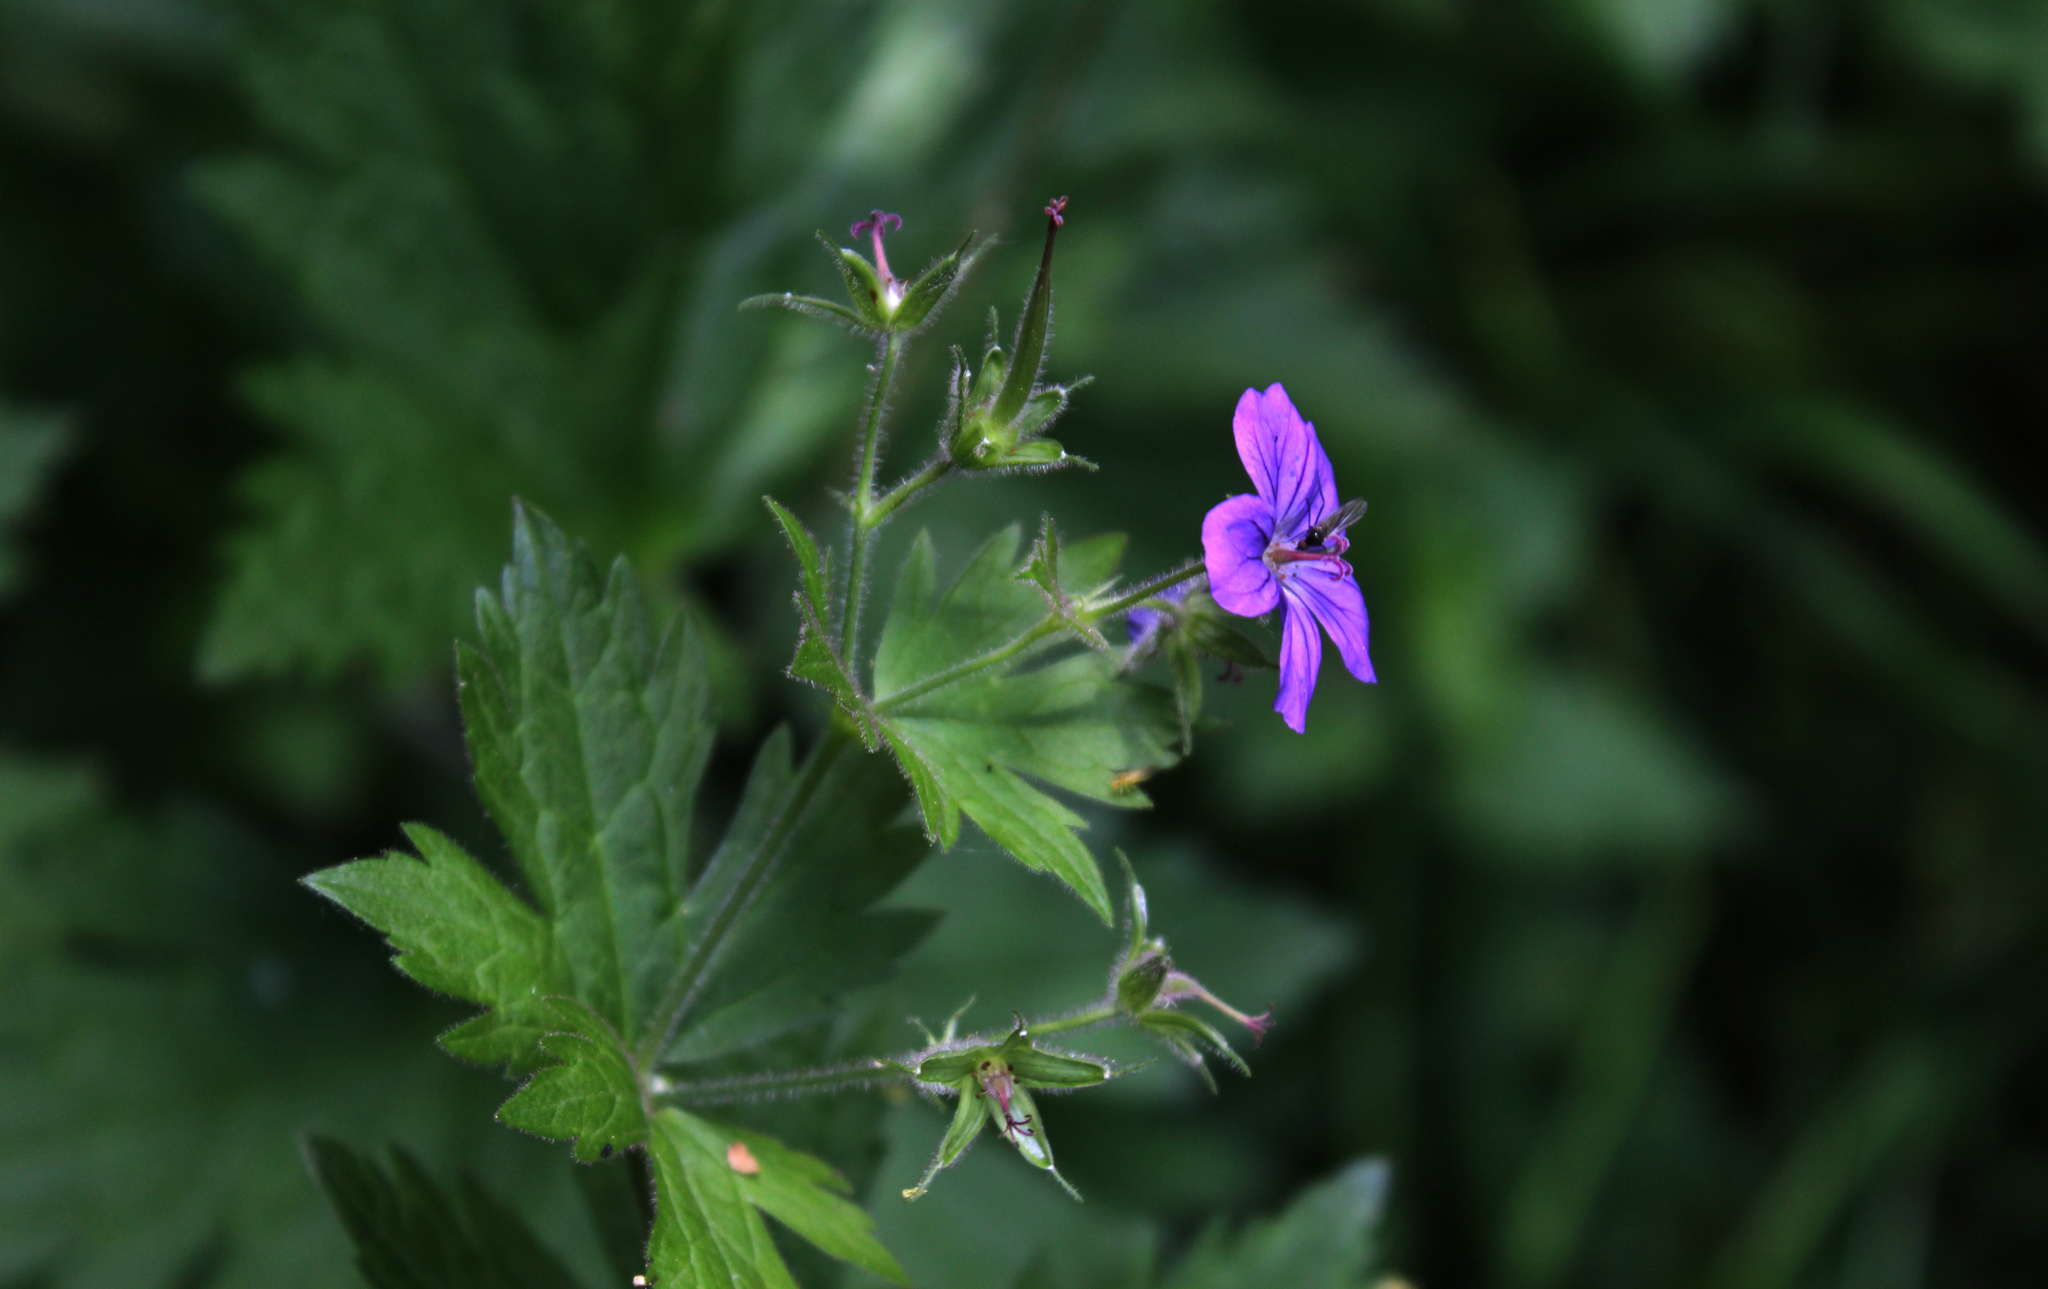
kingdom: Plantae
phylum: Tracheophyta
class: Magnoliopsida
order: Geraniales
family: Geraniaceae
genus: Geranium
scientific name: Geranium sylvaticum
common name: Wood crane's-bill
